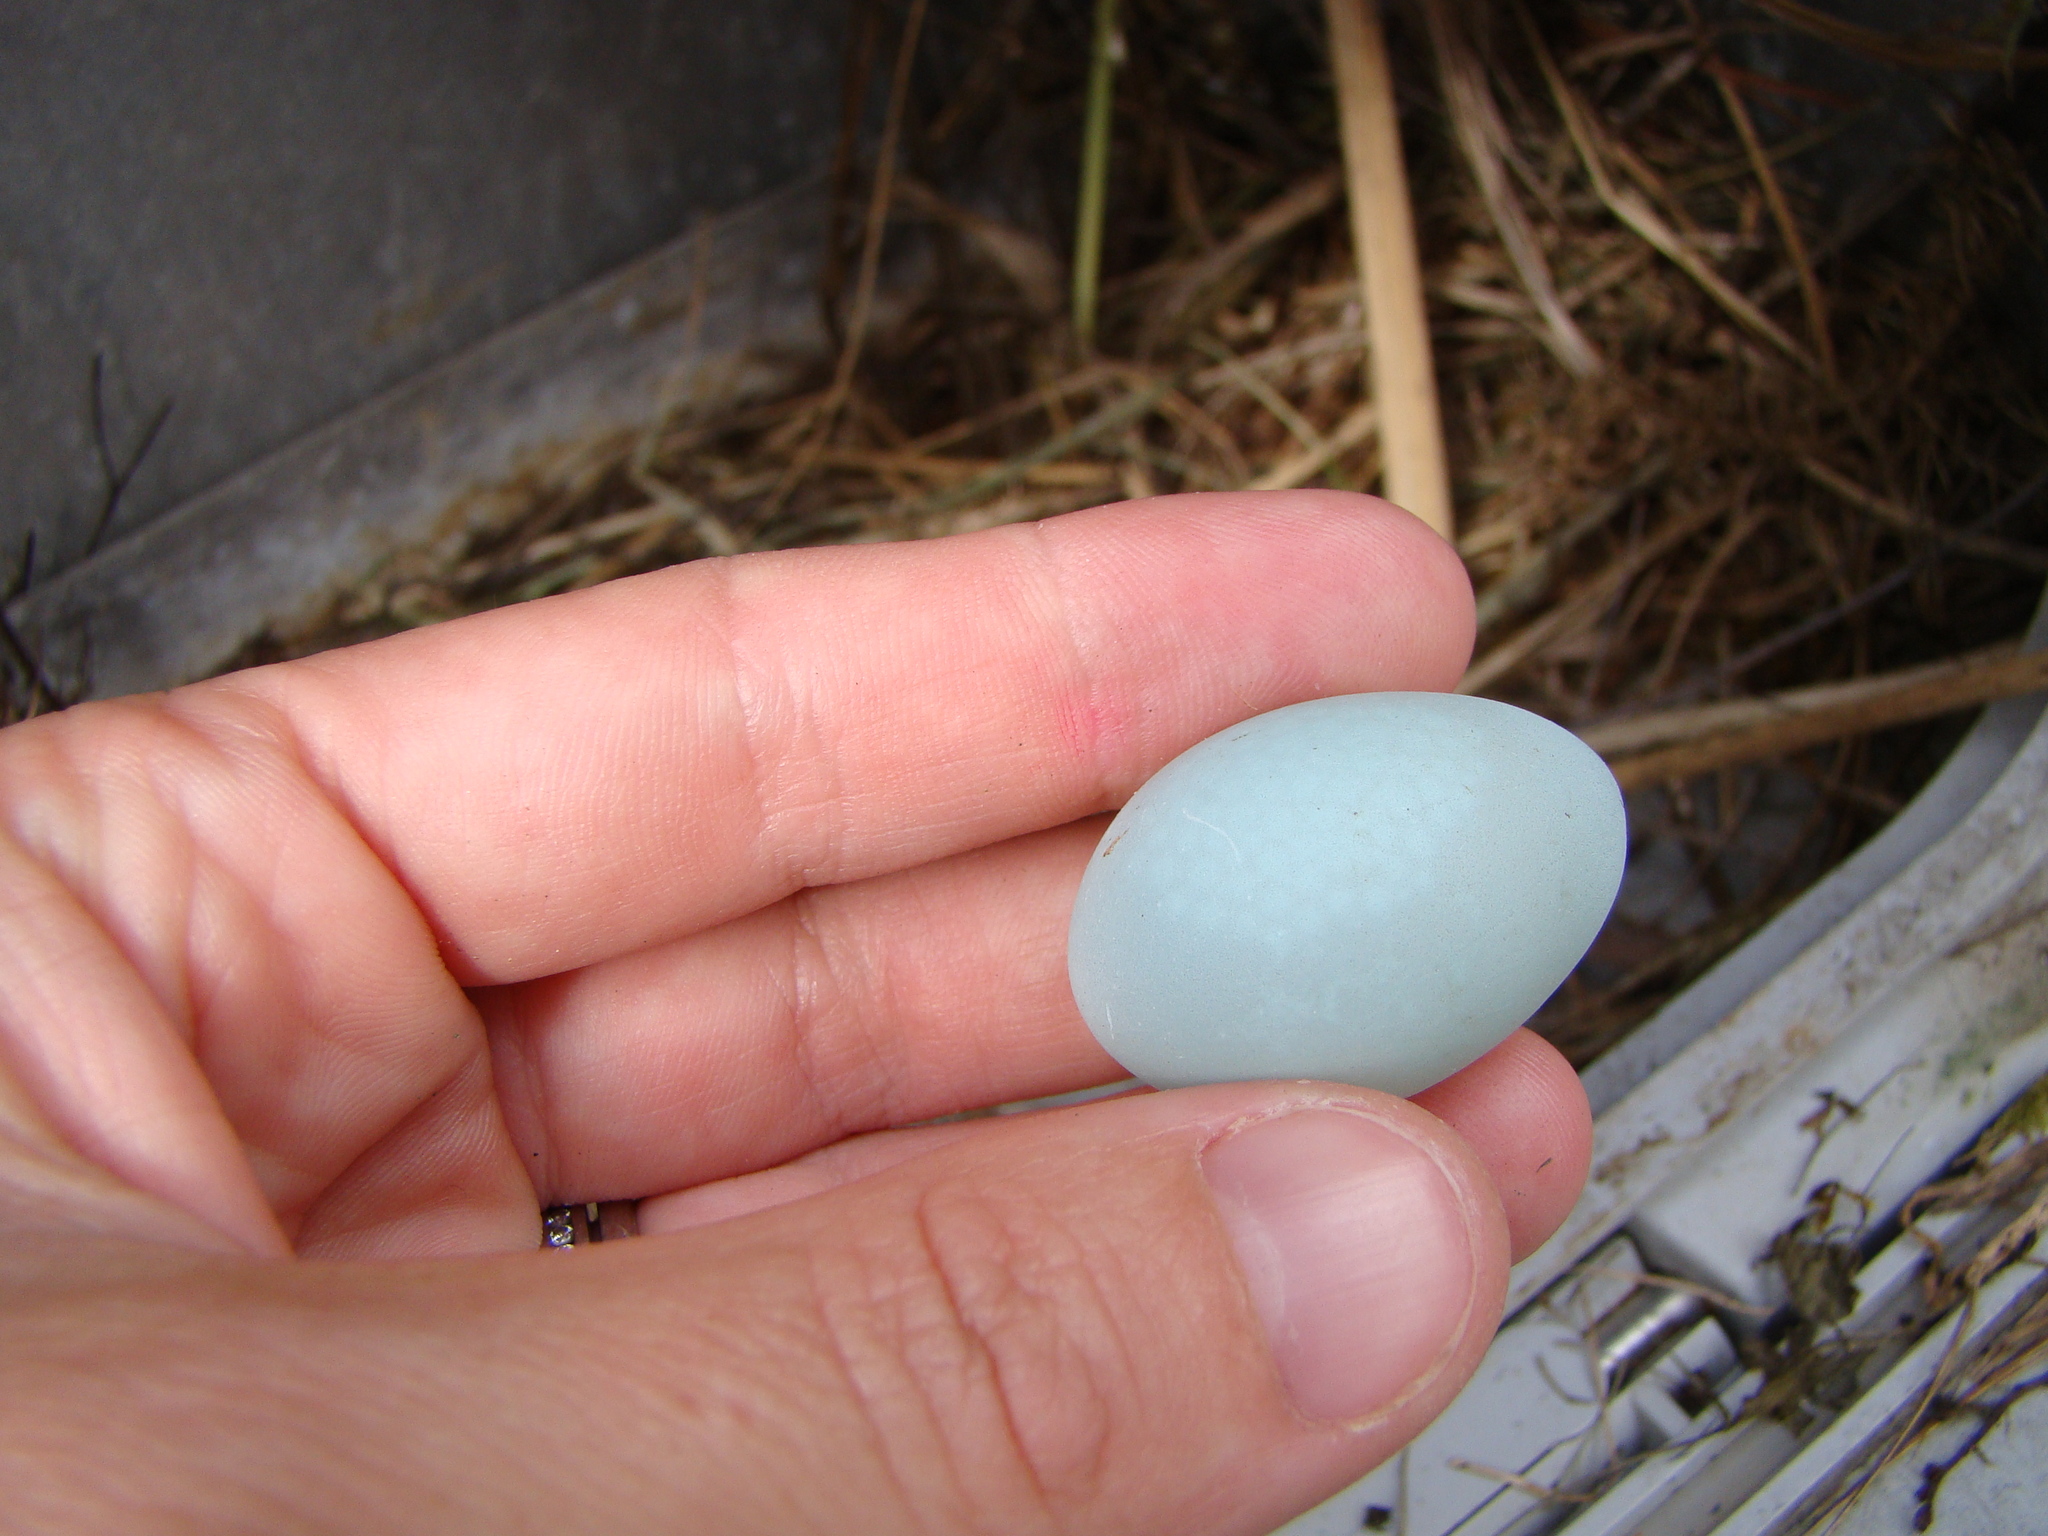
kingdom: Animalia
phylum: Chordata
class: Aves
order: Passeriformes
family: Sturnidae
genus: Sturnus
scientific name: Sturnus vulgaris
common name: Common starling
